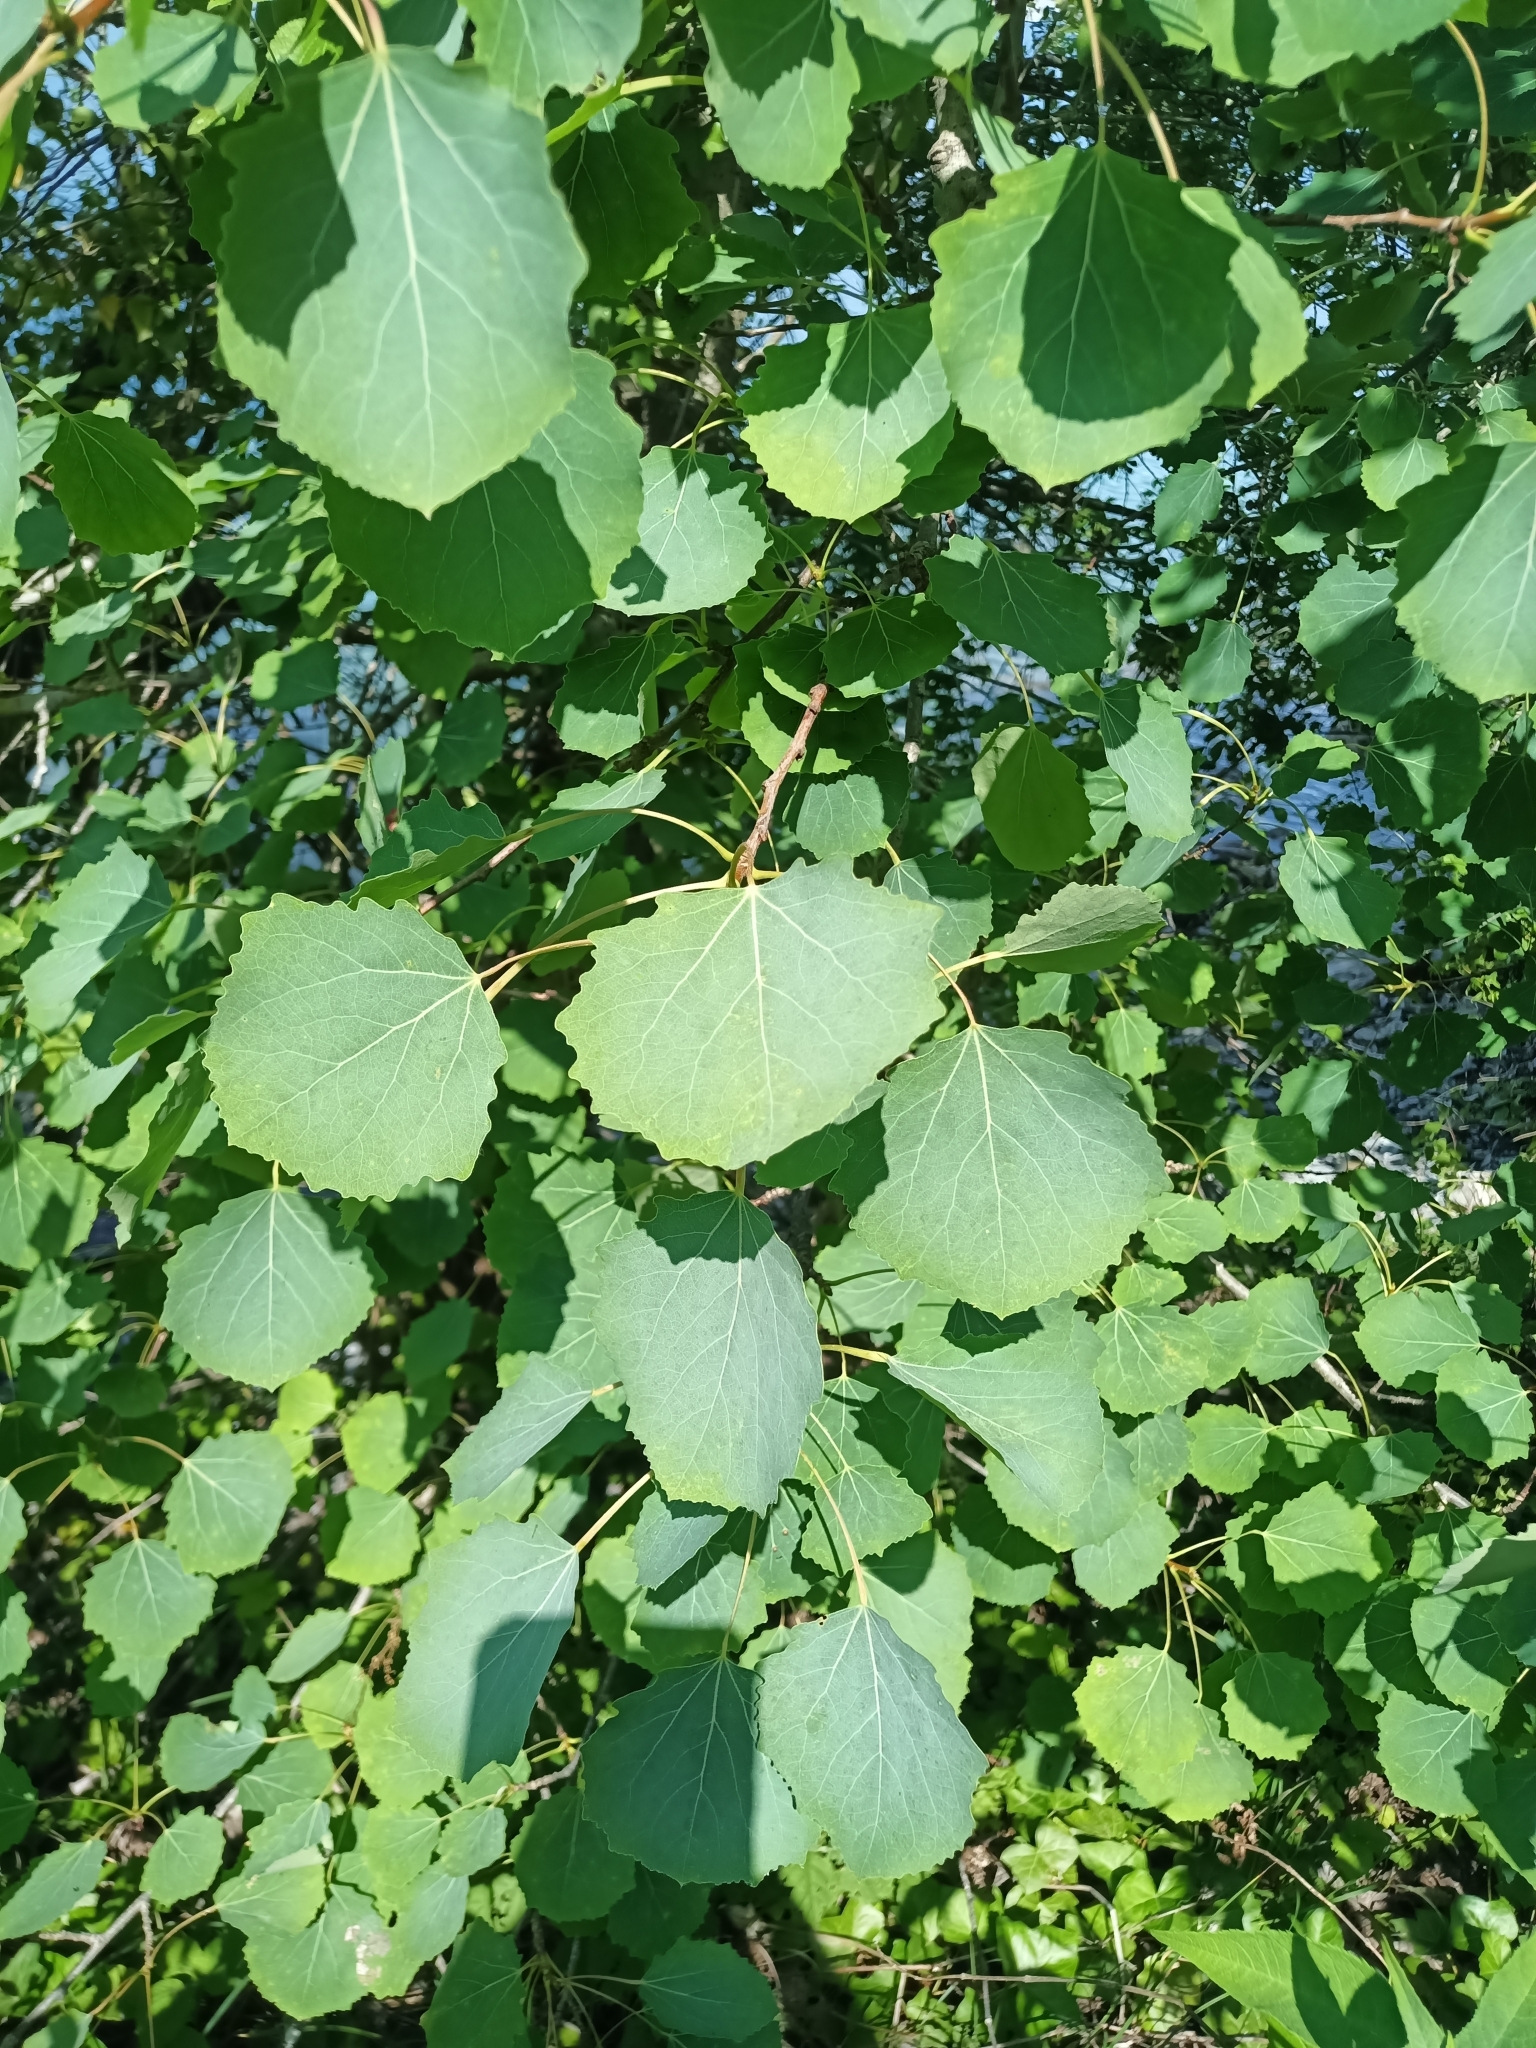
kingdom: Plantae
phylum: Tracheophyta
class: Magnoliopsida
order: Malpighiales
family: Salicaceae
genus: Populus
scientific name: Populus tremula
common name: European aspen
